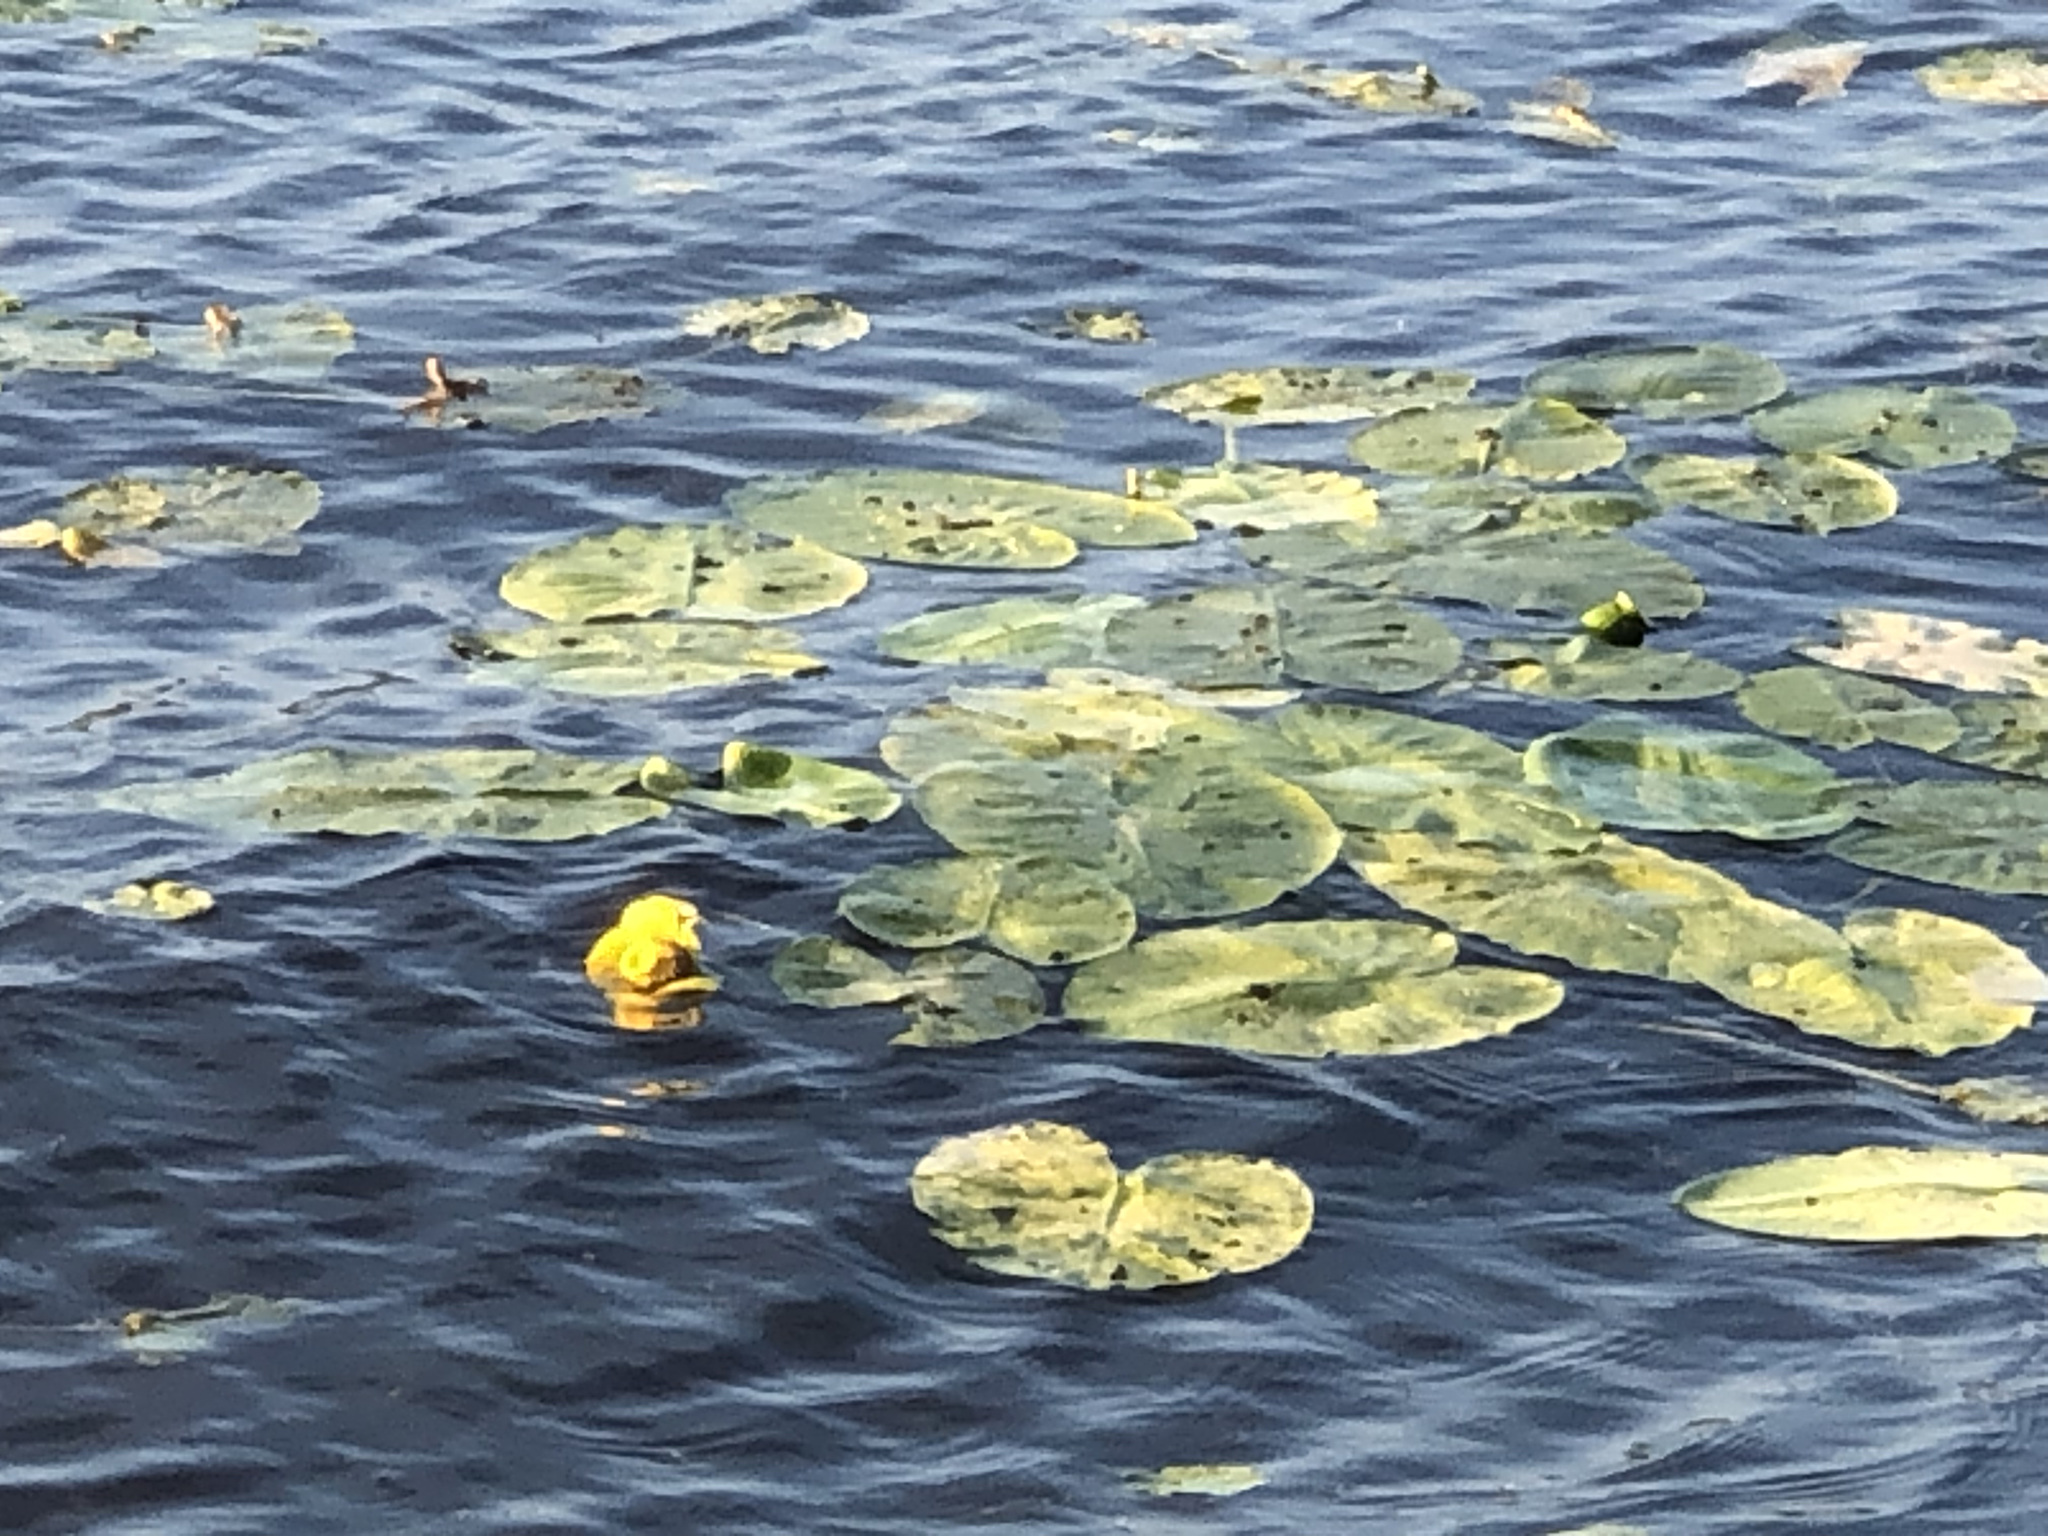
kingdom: Plantae
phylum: Tracheophyta
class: Magnoliopsida
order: Nymphaeales
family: Nymphaeaceae
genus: Nuphar
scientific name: Nuphar polysepala
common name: Rocky mountain cow-lily
